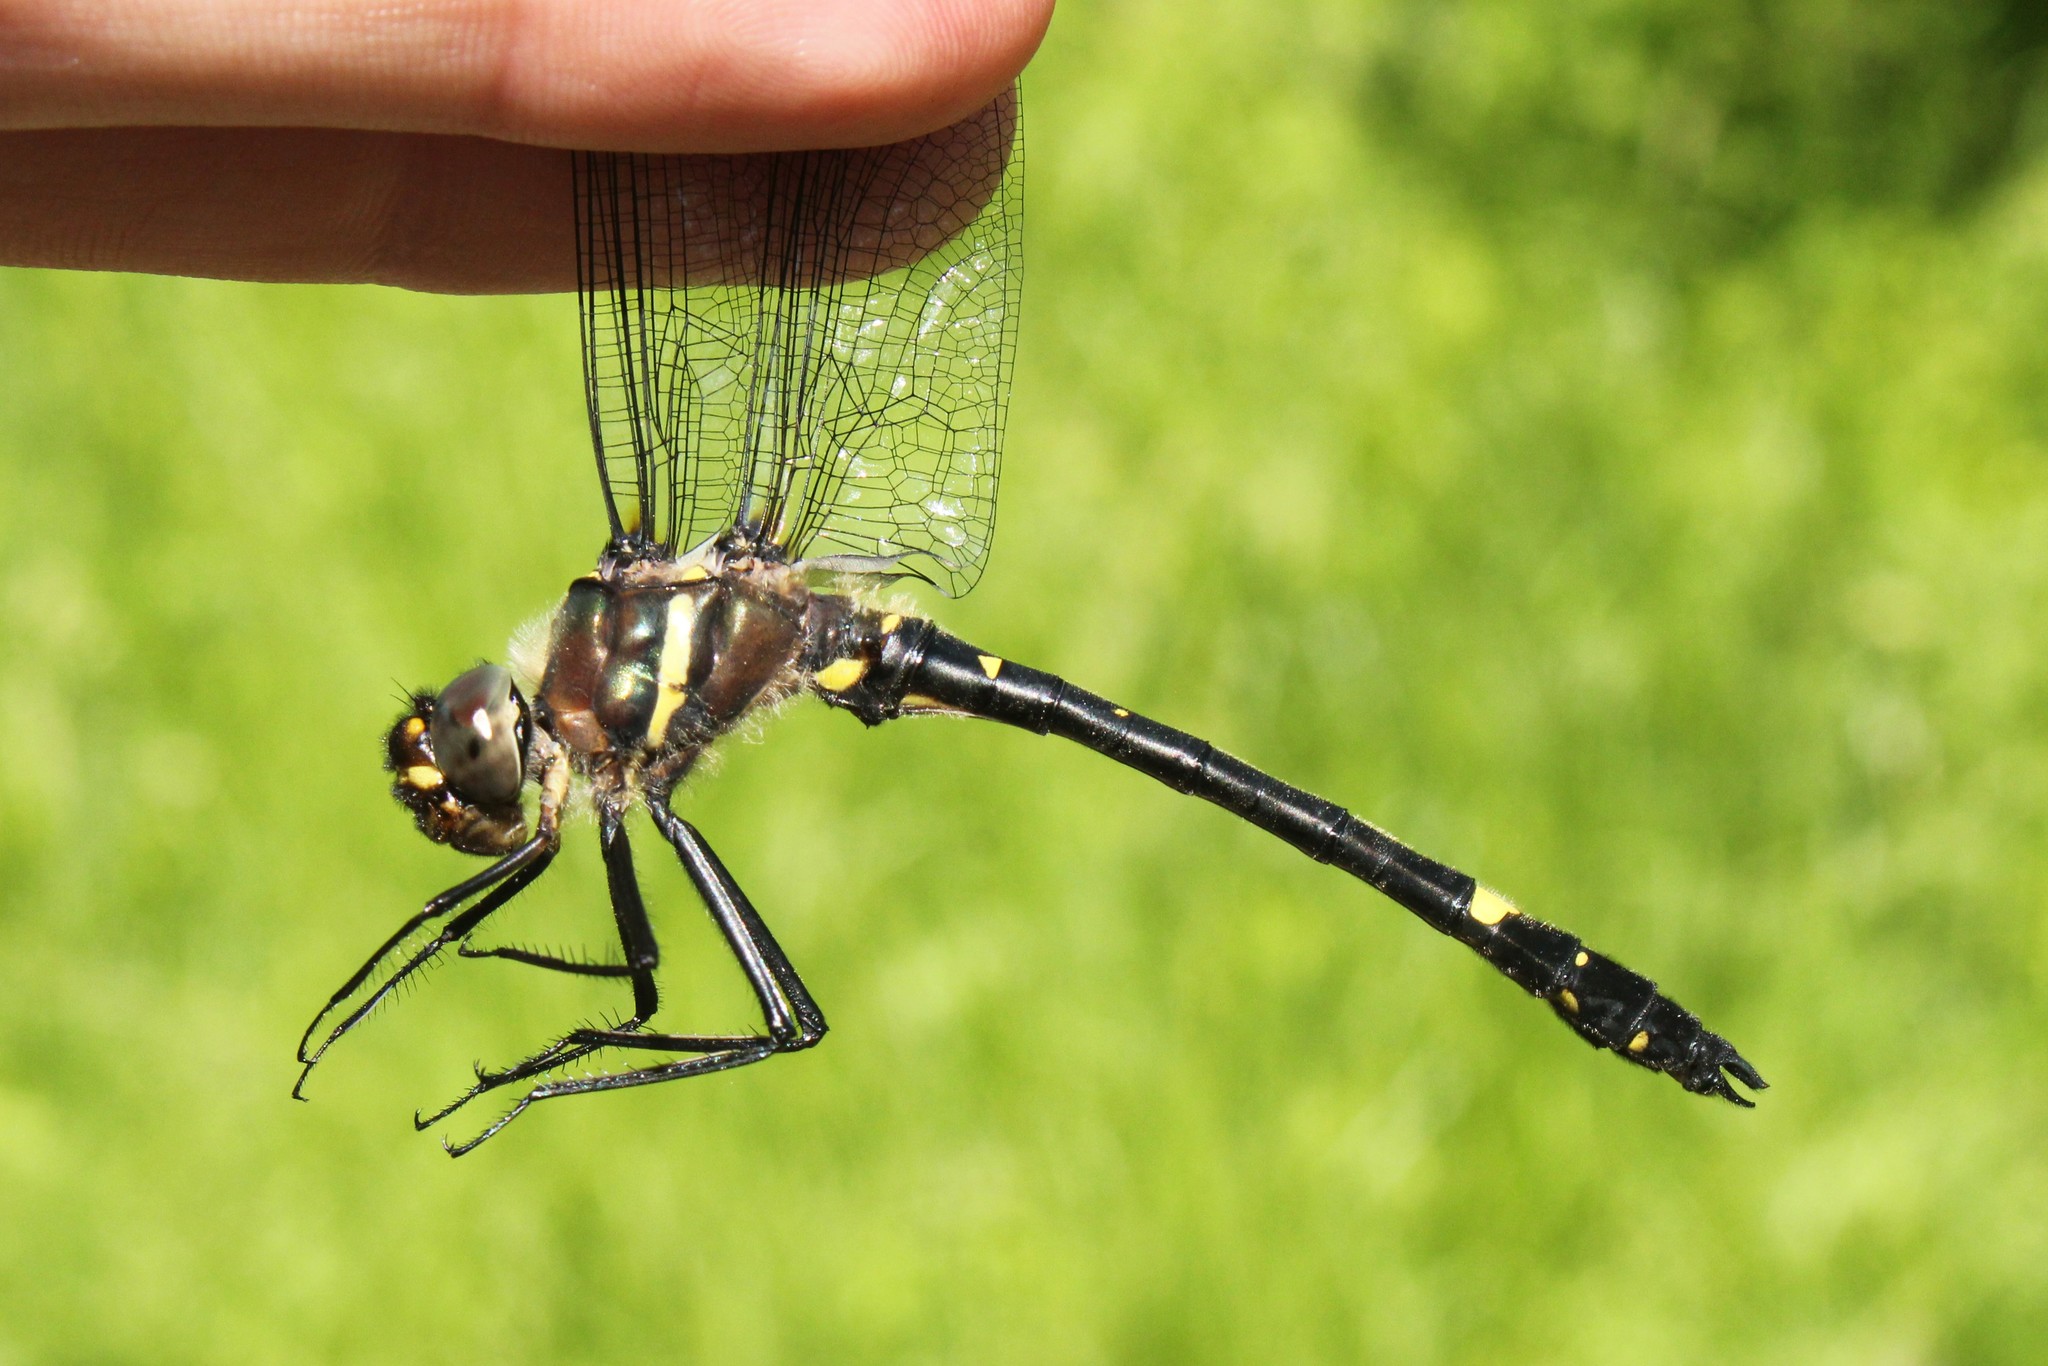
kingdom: Animalia
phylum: Arthropoda
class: Insecta
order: Odonata
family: Macromiidae
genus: Macromia
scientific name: Macromia illinoiensis
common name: Swift river cruiser
